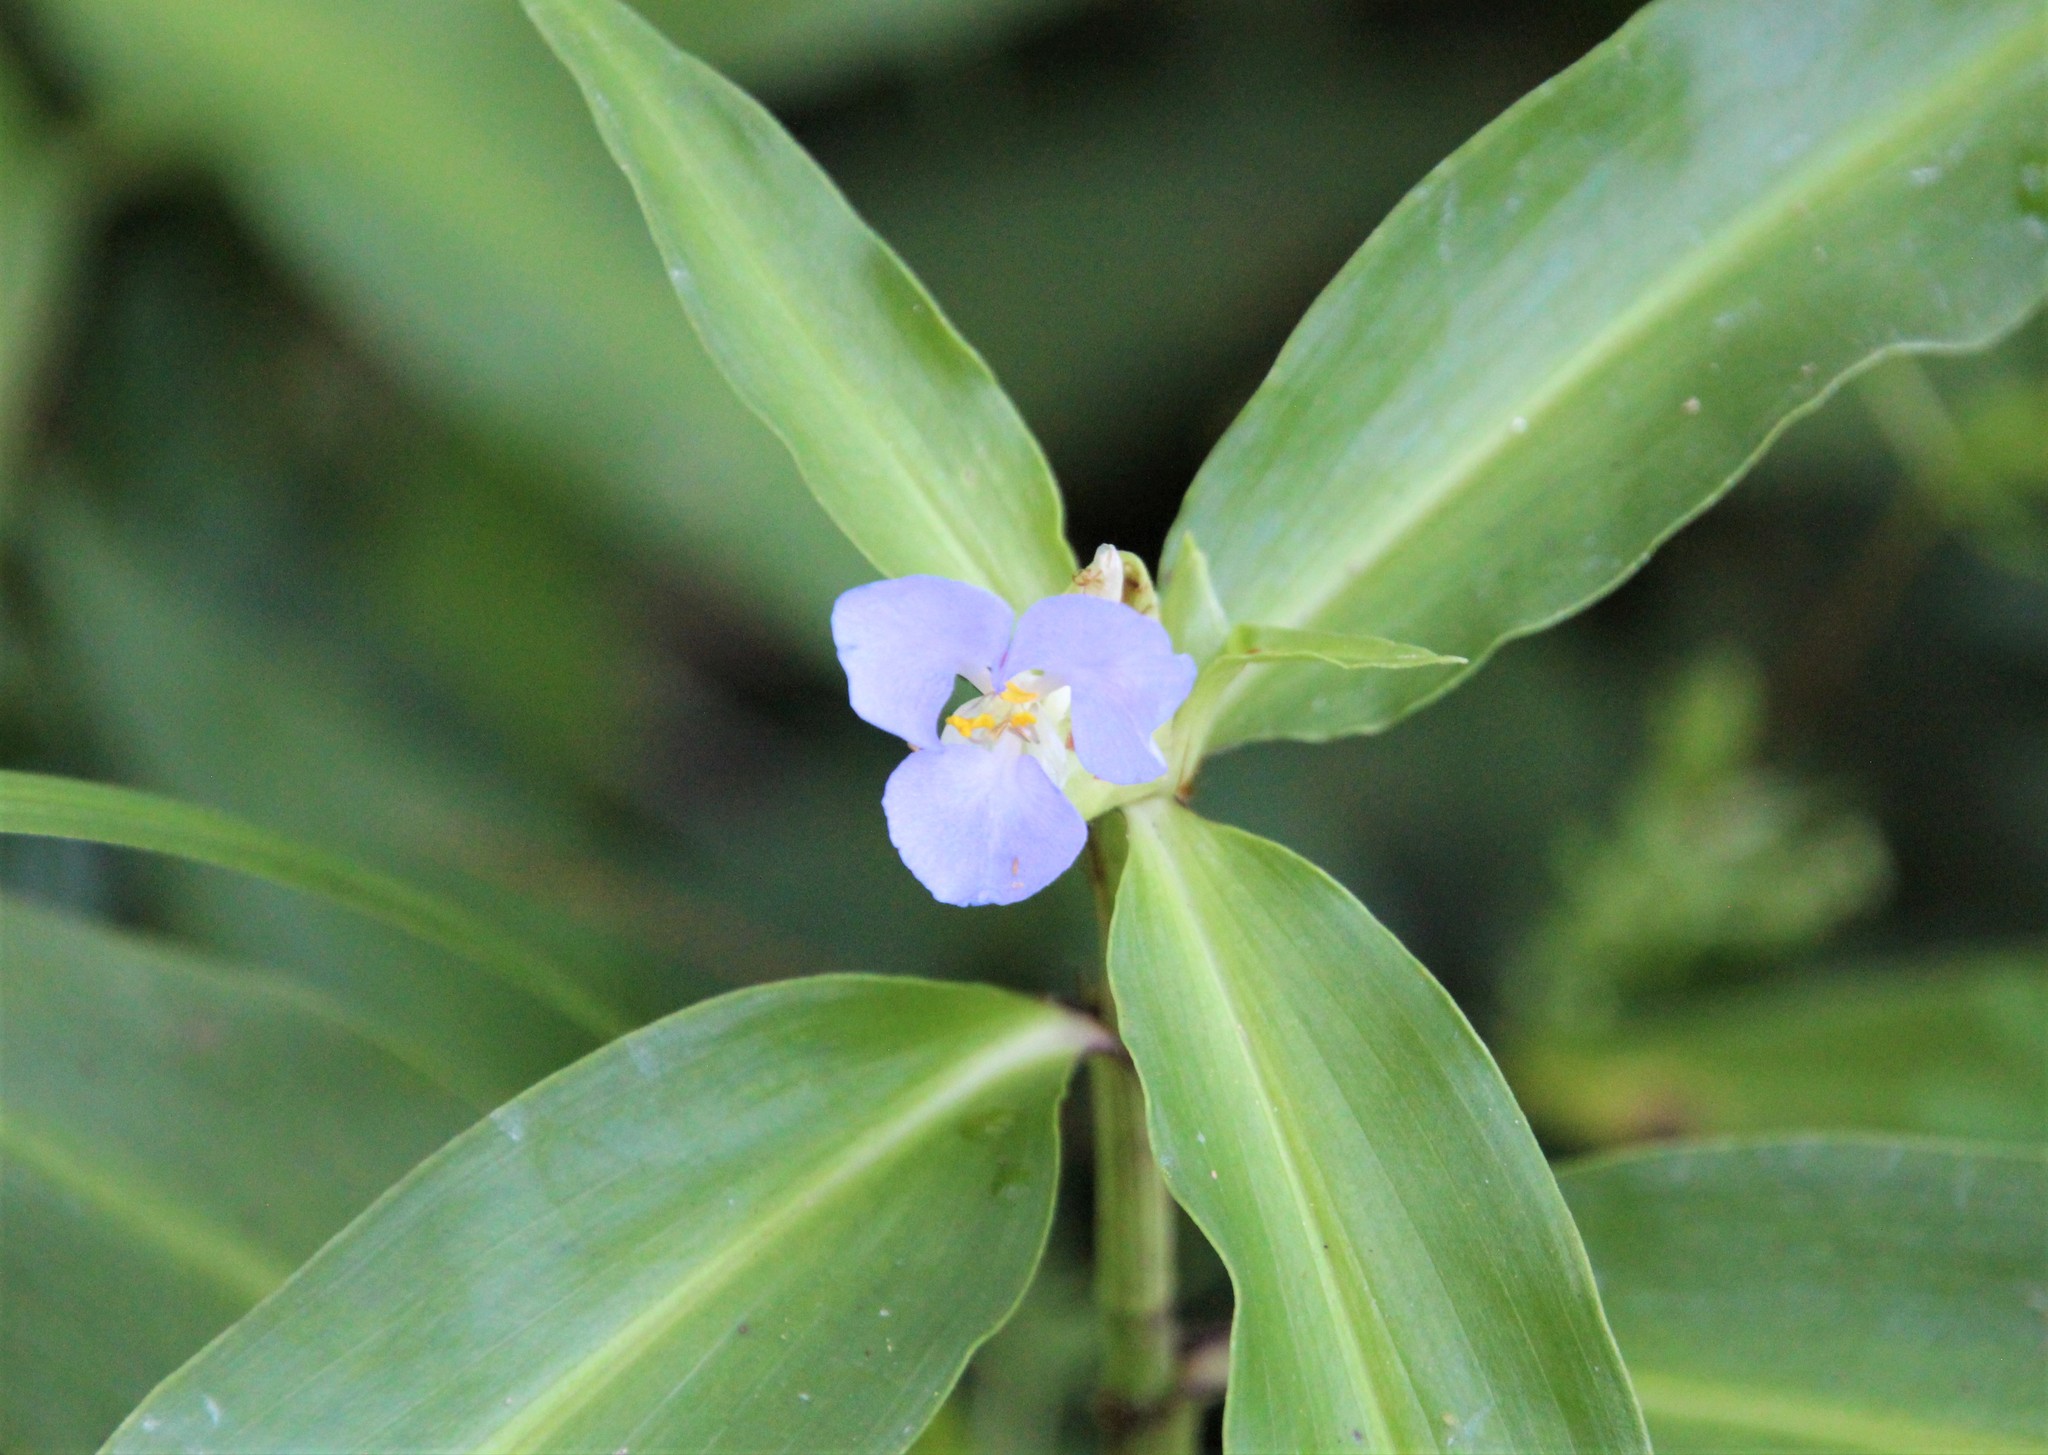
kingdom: Plantae
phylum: Tracheophyta
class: Liliopsida
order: Commelinales
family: Commelinaceae
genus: Commelina
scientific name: Commelina virginica
